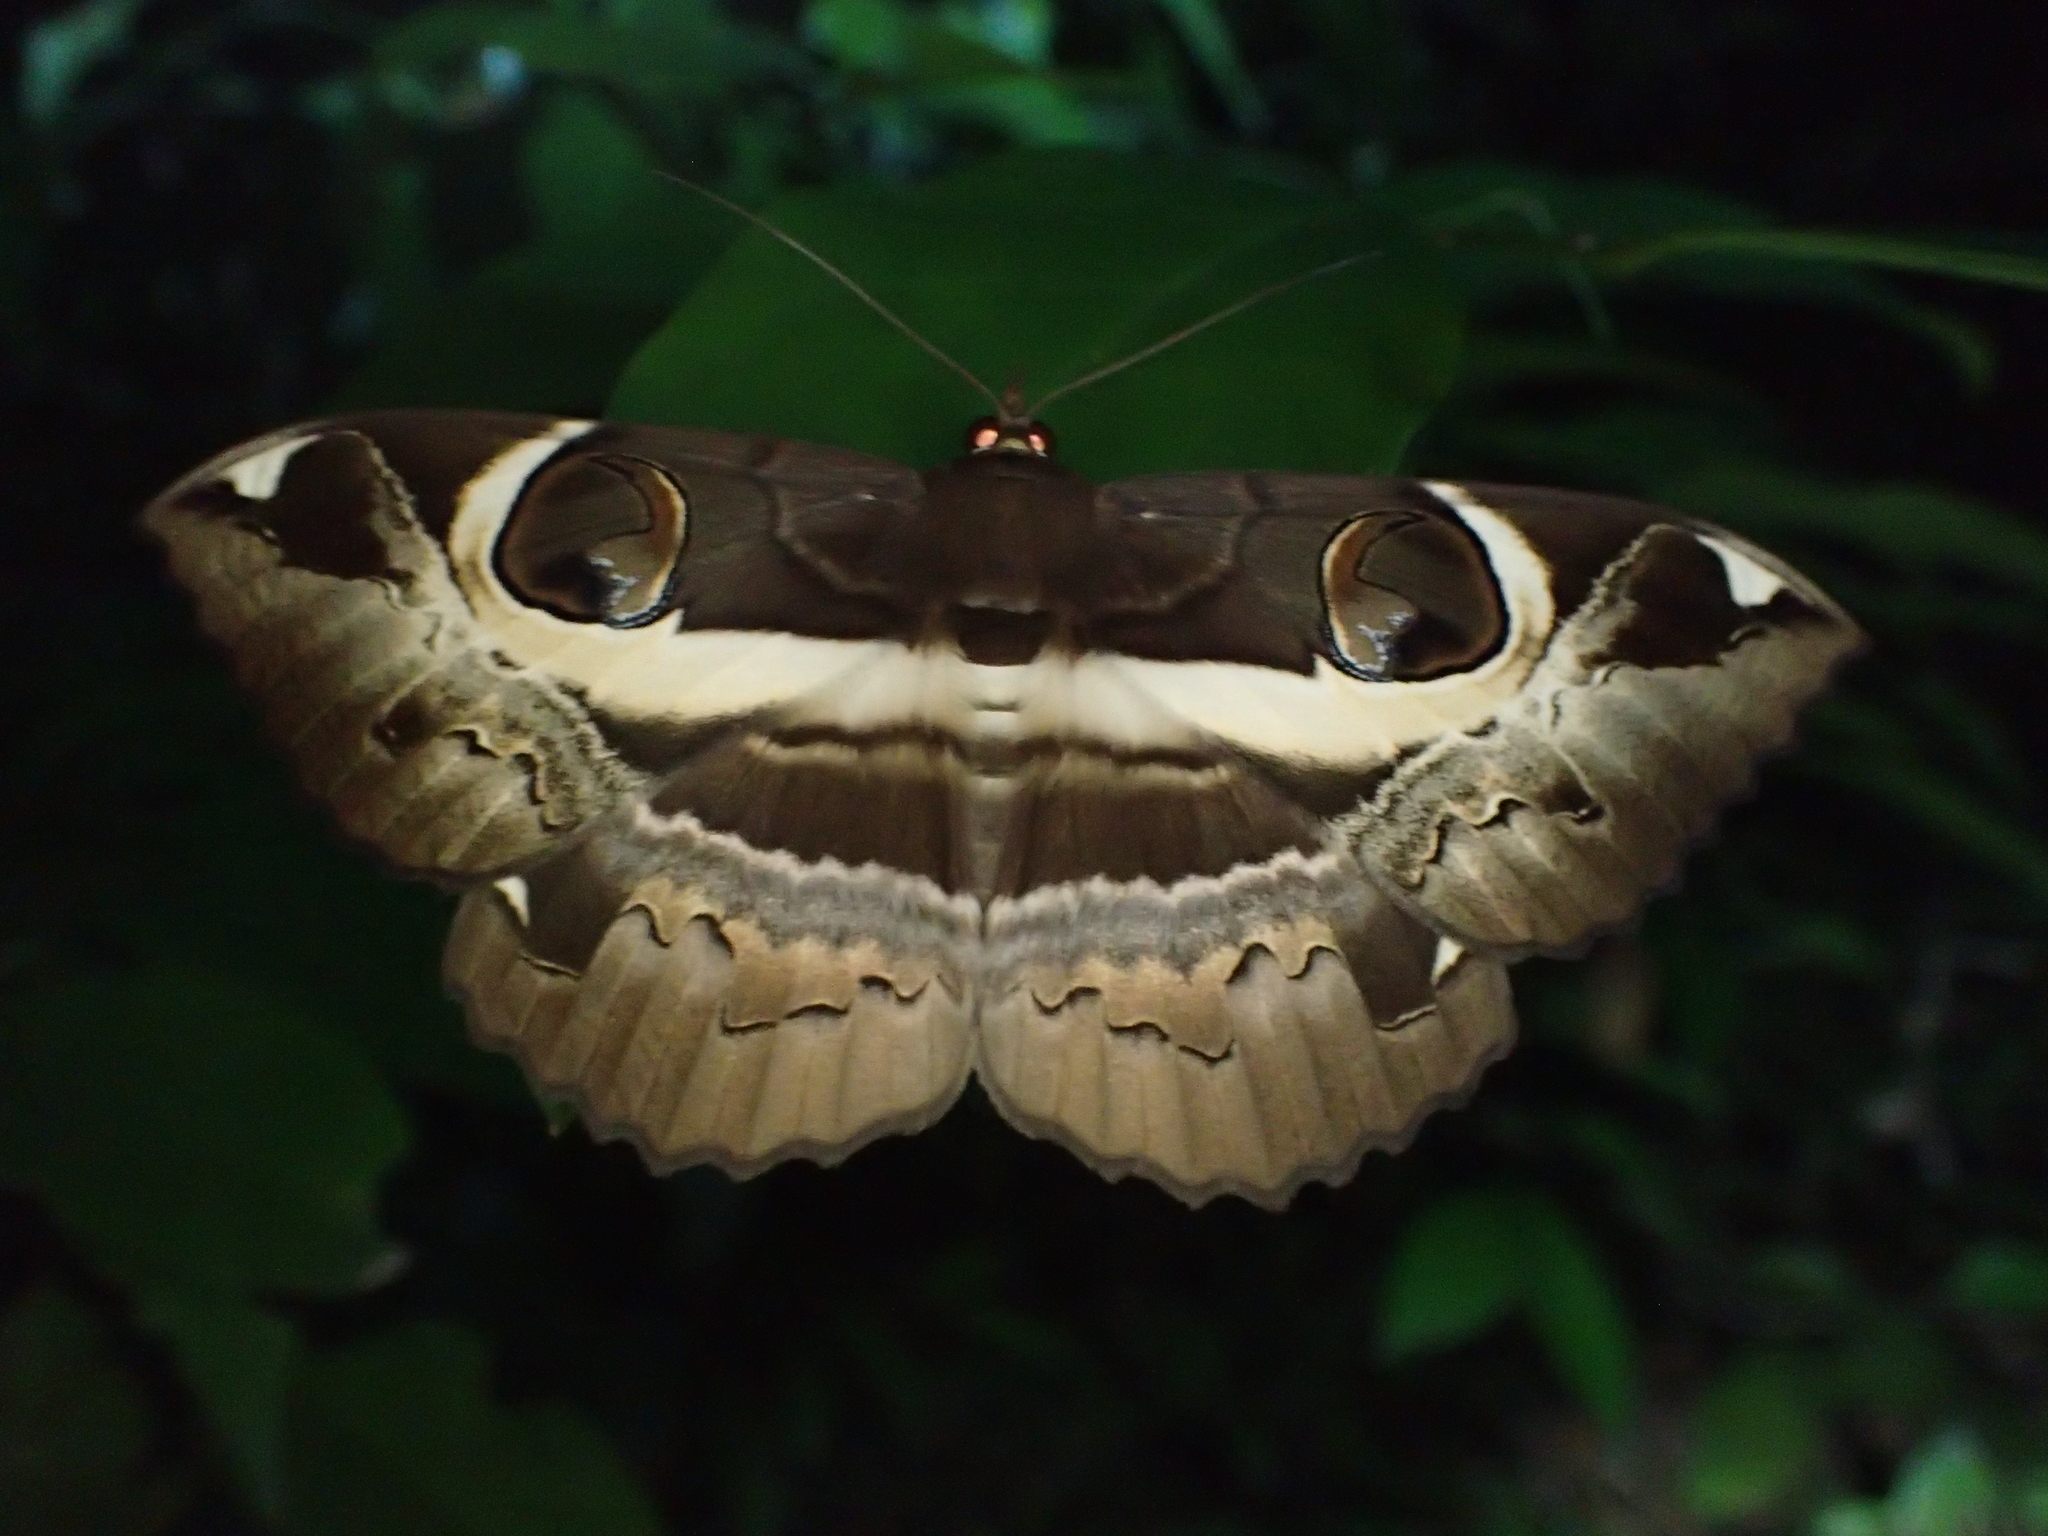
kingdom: Animalia
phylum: Arthropoda
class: Insecta
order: Lepidoptera
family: Erebidae
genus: Erebus
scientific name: Erebus ephesperis
